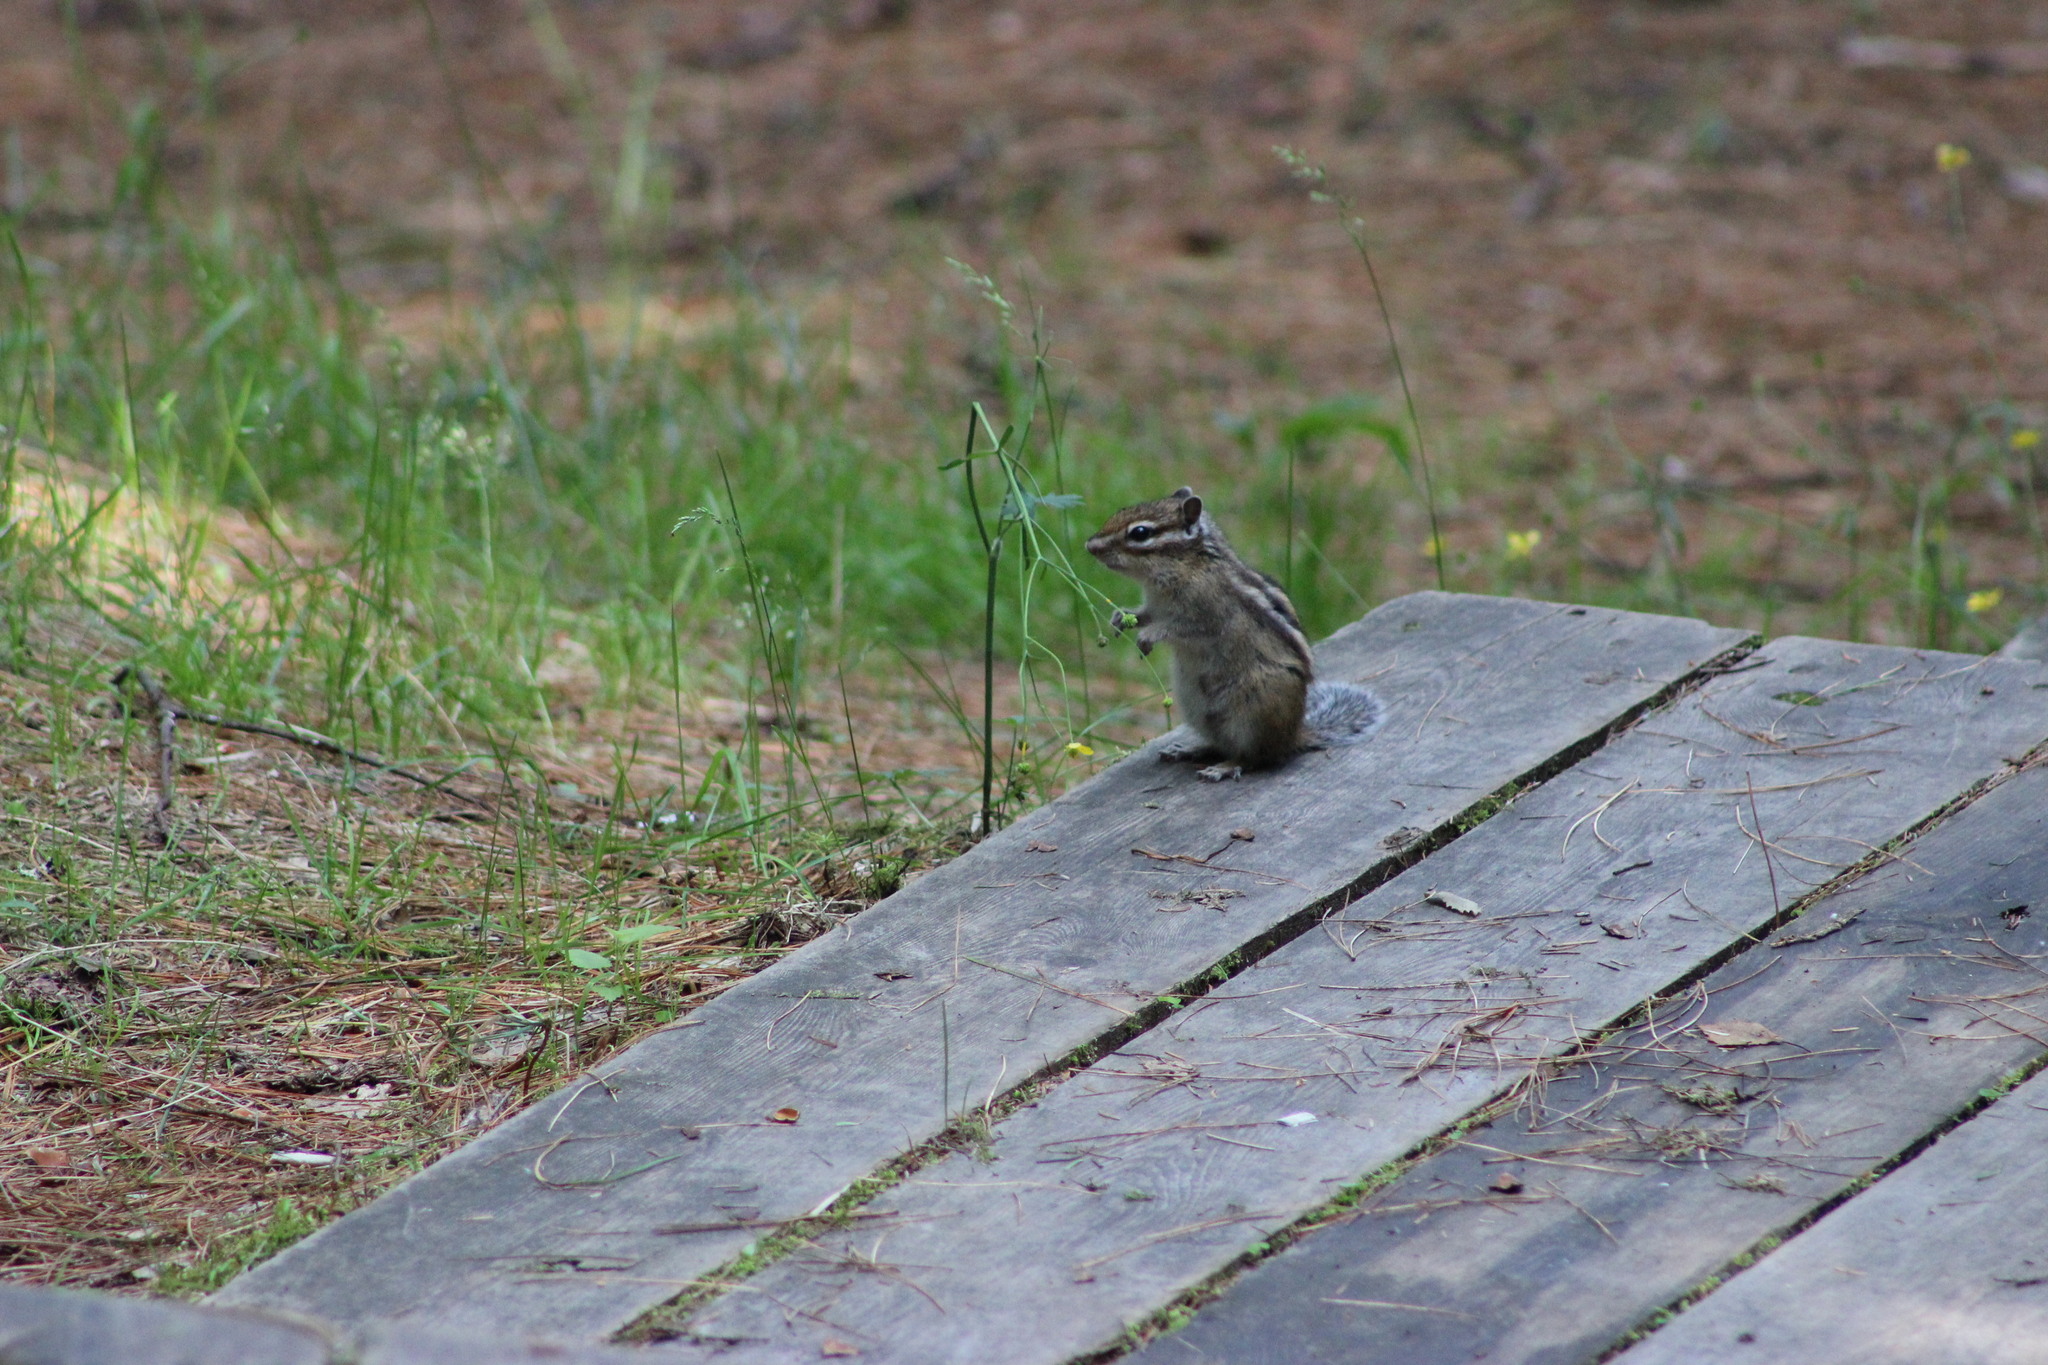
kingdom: Animalia
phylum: Chordata
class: Mammalia
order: Rodentia
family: Sciuridae
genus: Tamias
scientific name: Tamias sibiricus
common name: Siberian chipmunk
